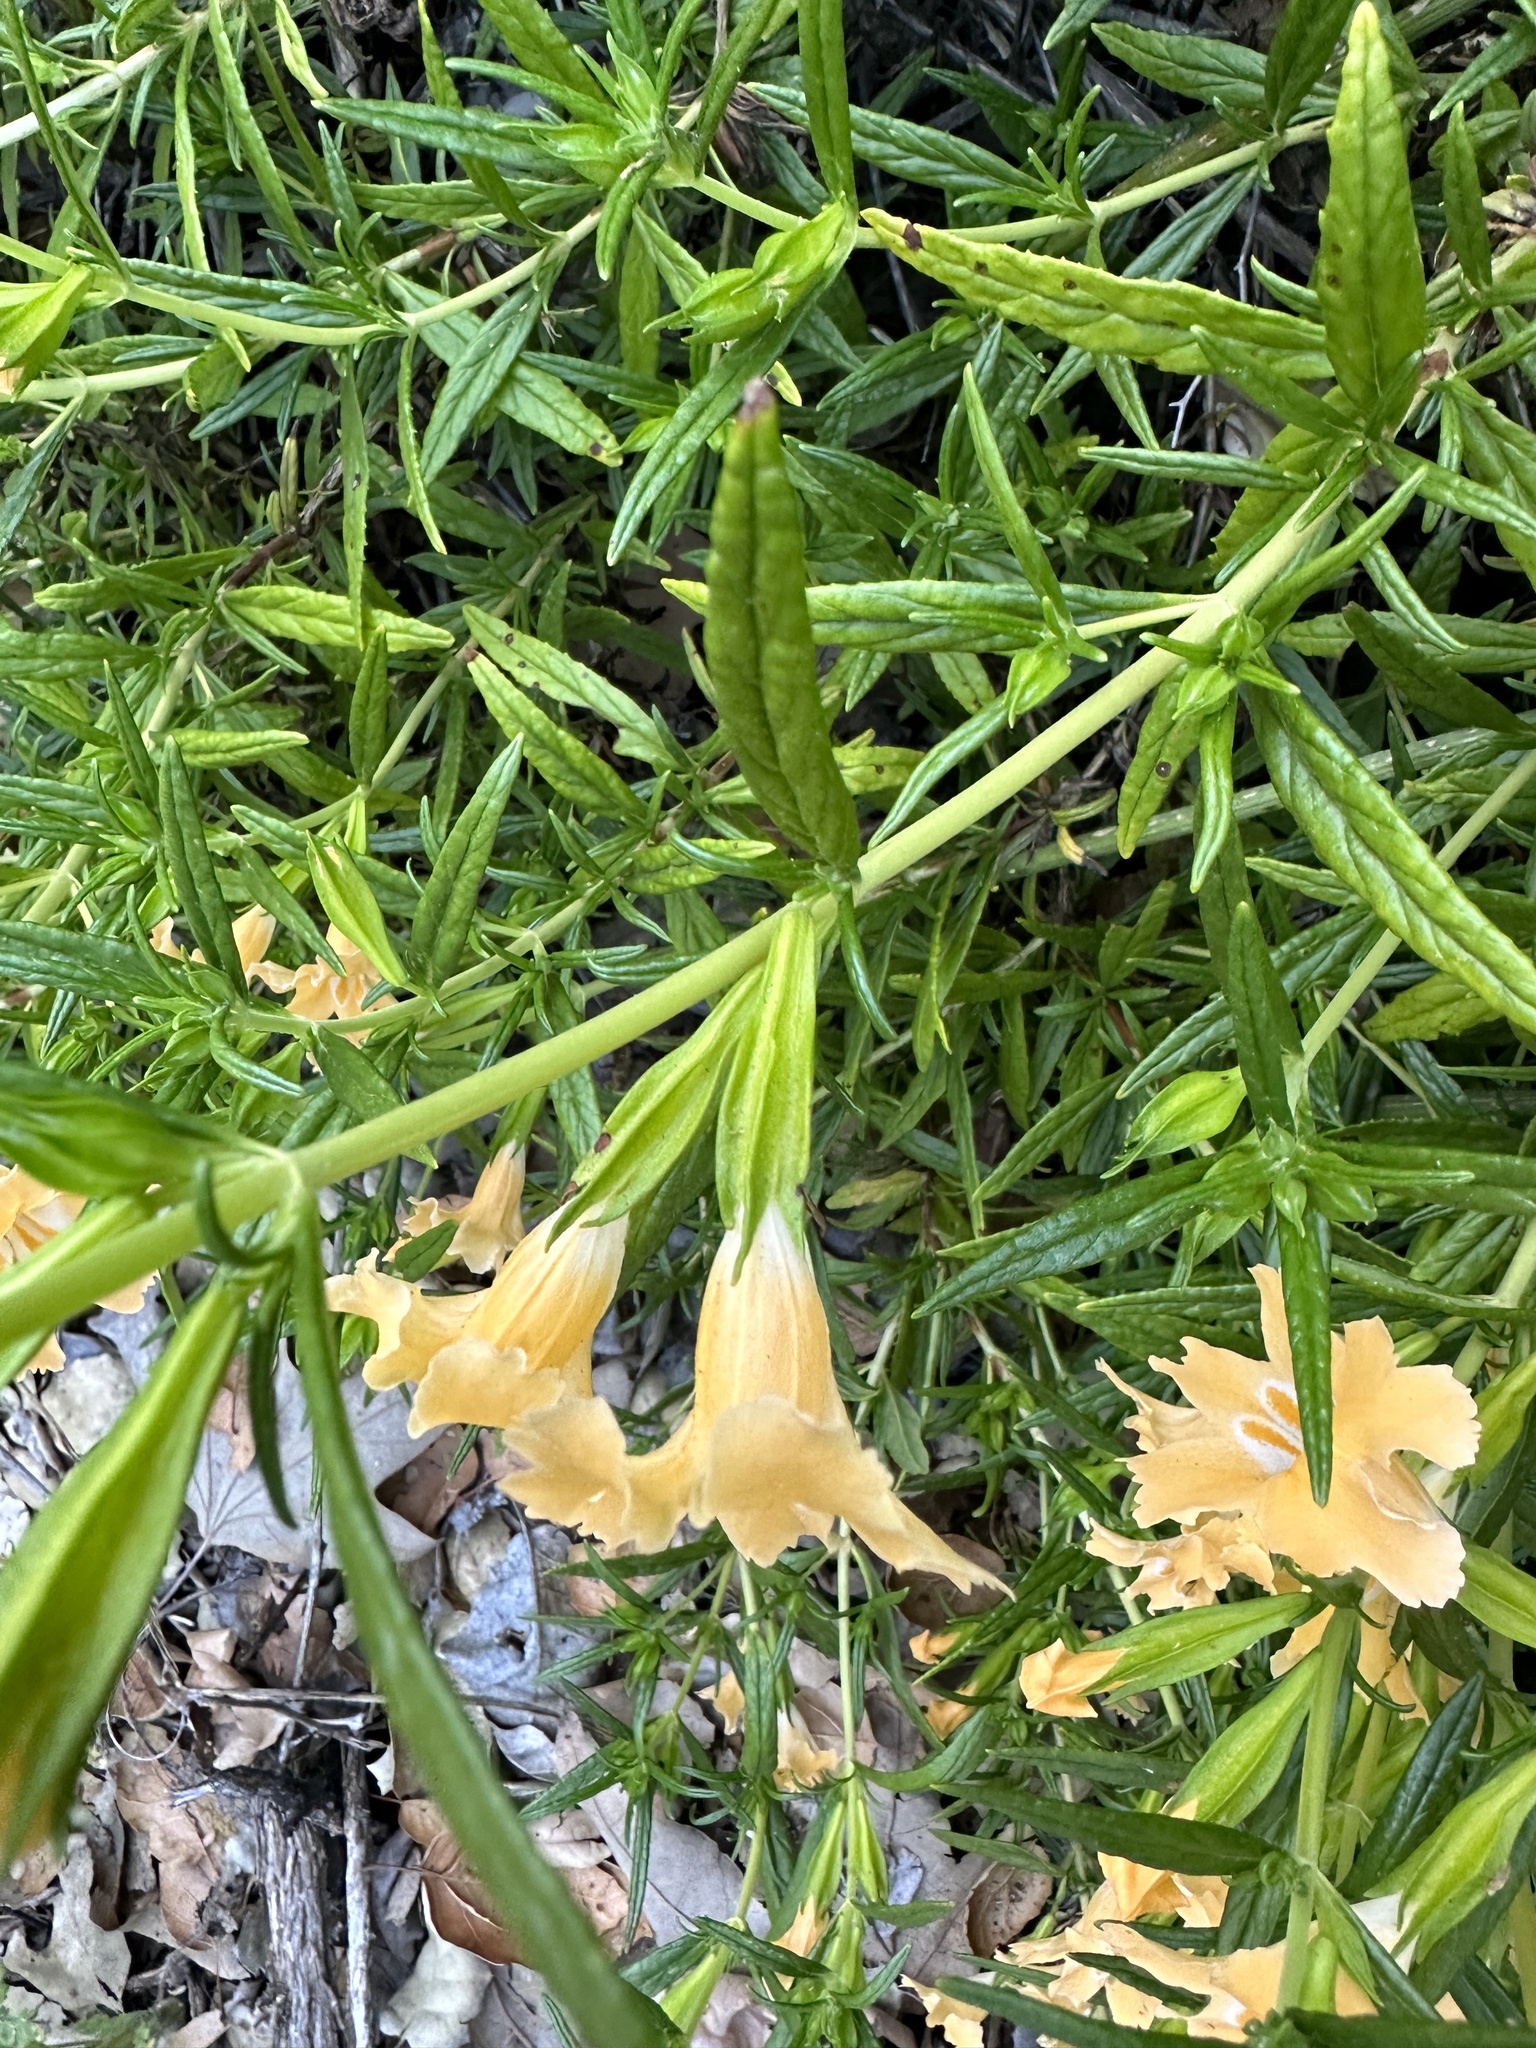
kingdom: Plantae
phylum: Tracheophyta
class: Magnoliopsida
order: Lamiales
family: Phrymaceae
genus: Diplacus
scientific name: Diplacus longiflorus
